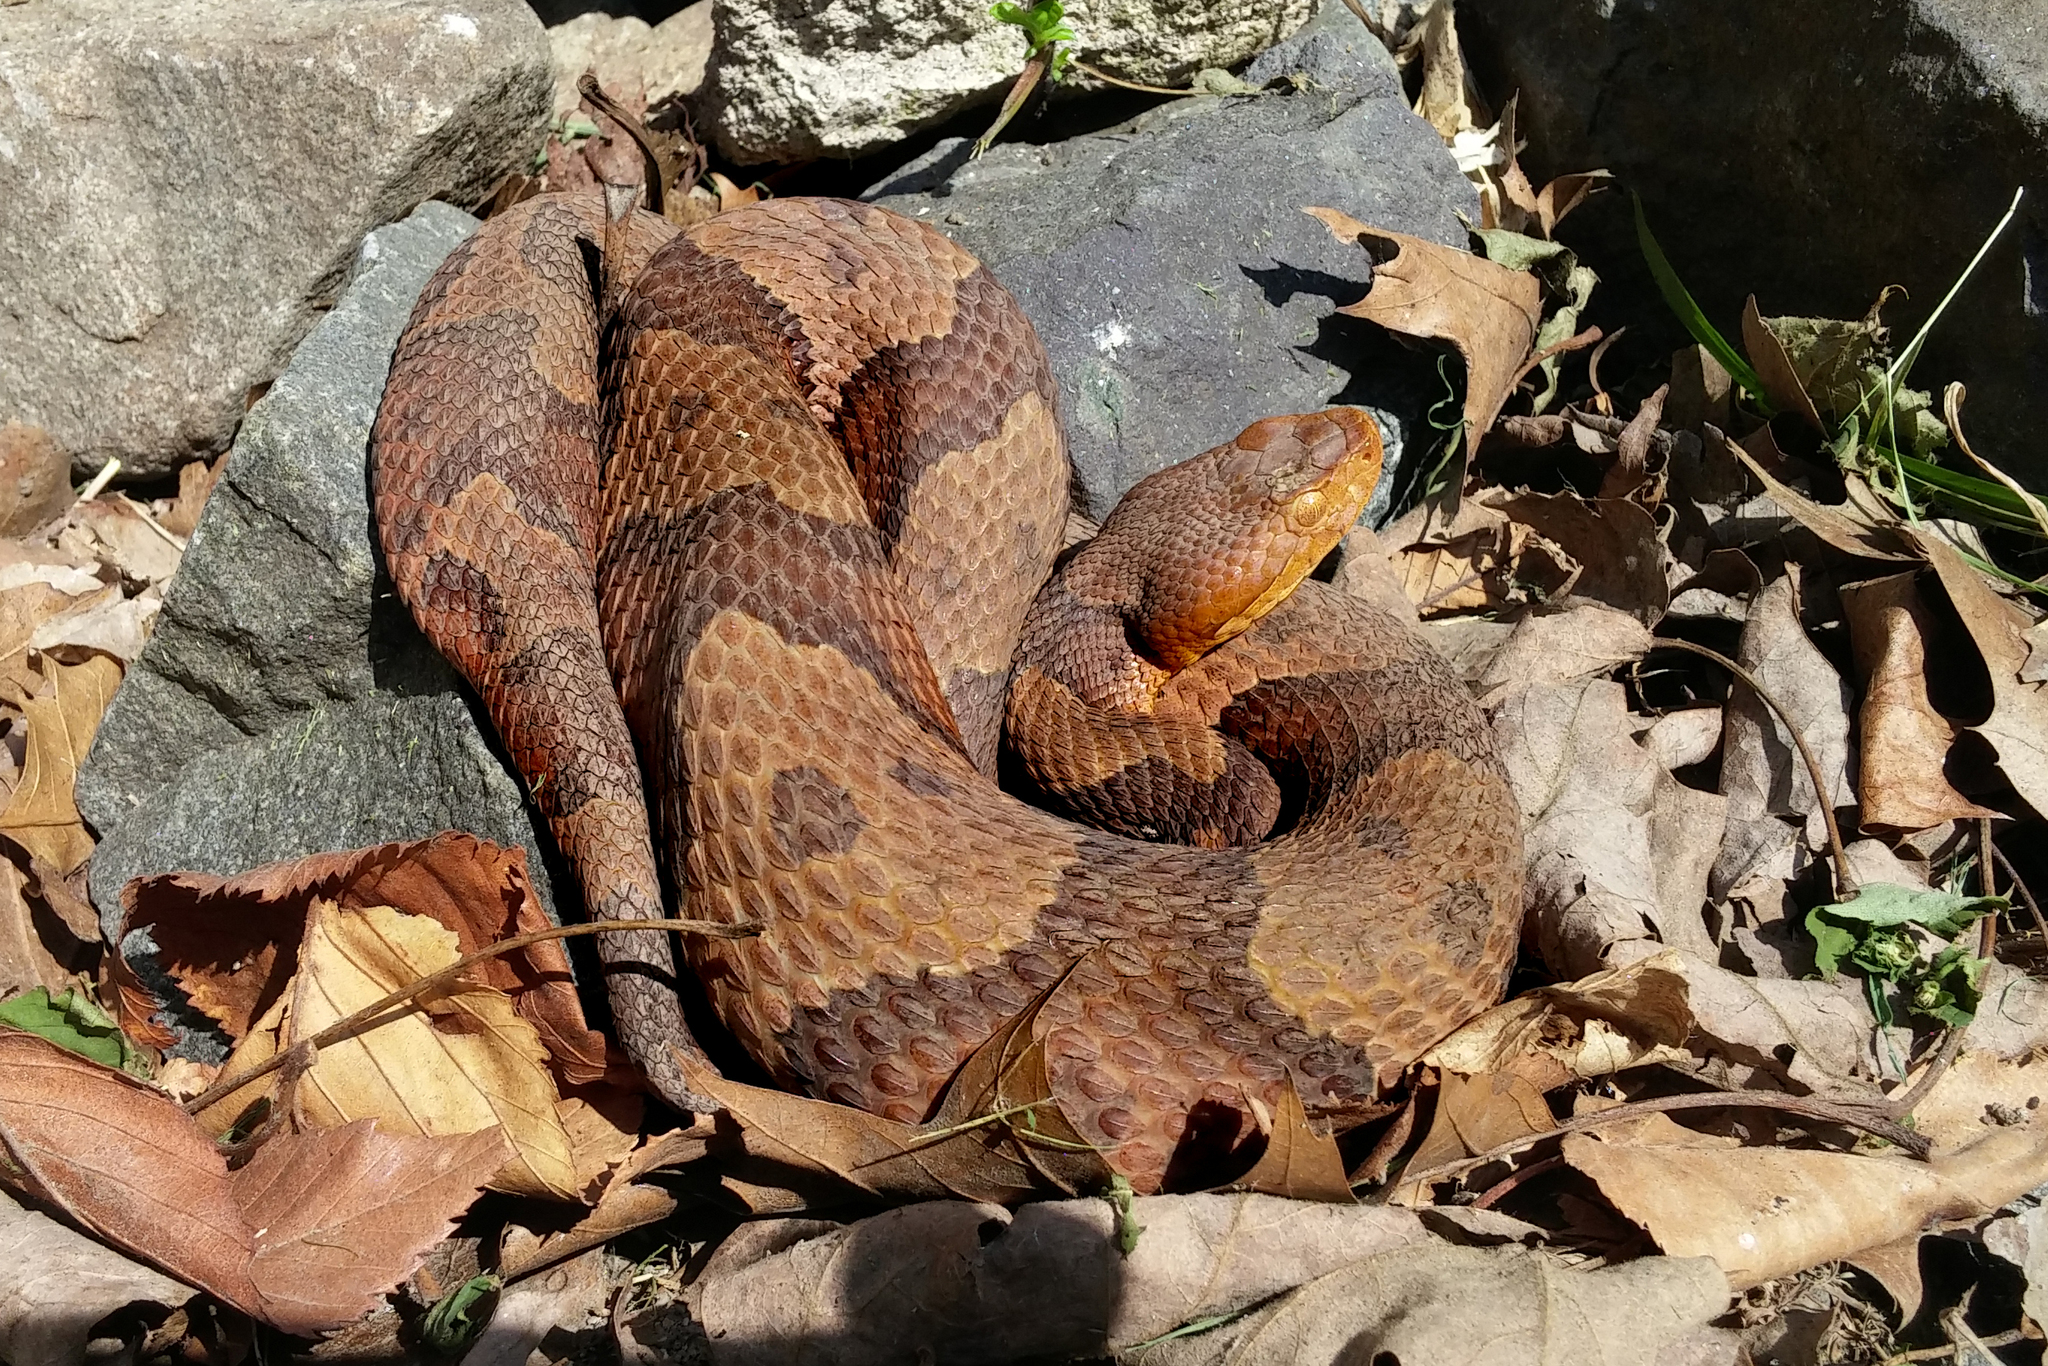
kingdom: Animalia
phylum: Chordata
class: Squamata
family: Viperidae
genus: Agkistrodon
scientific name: Agkistrodon contortrix
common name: Northern copperhead
